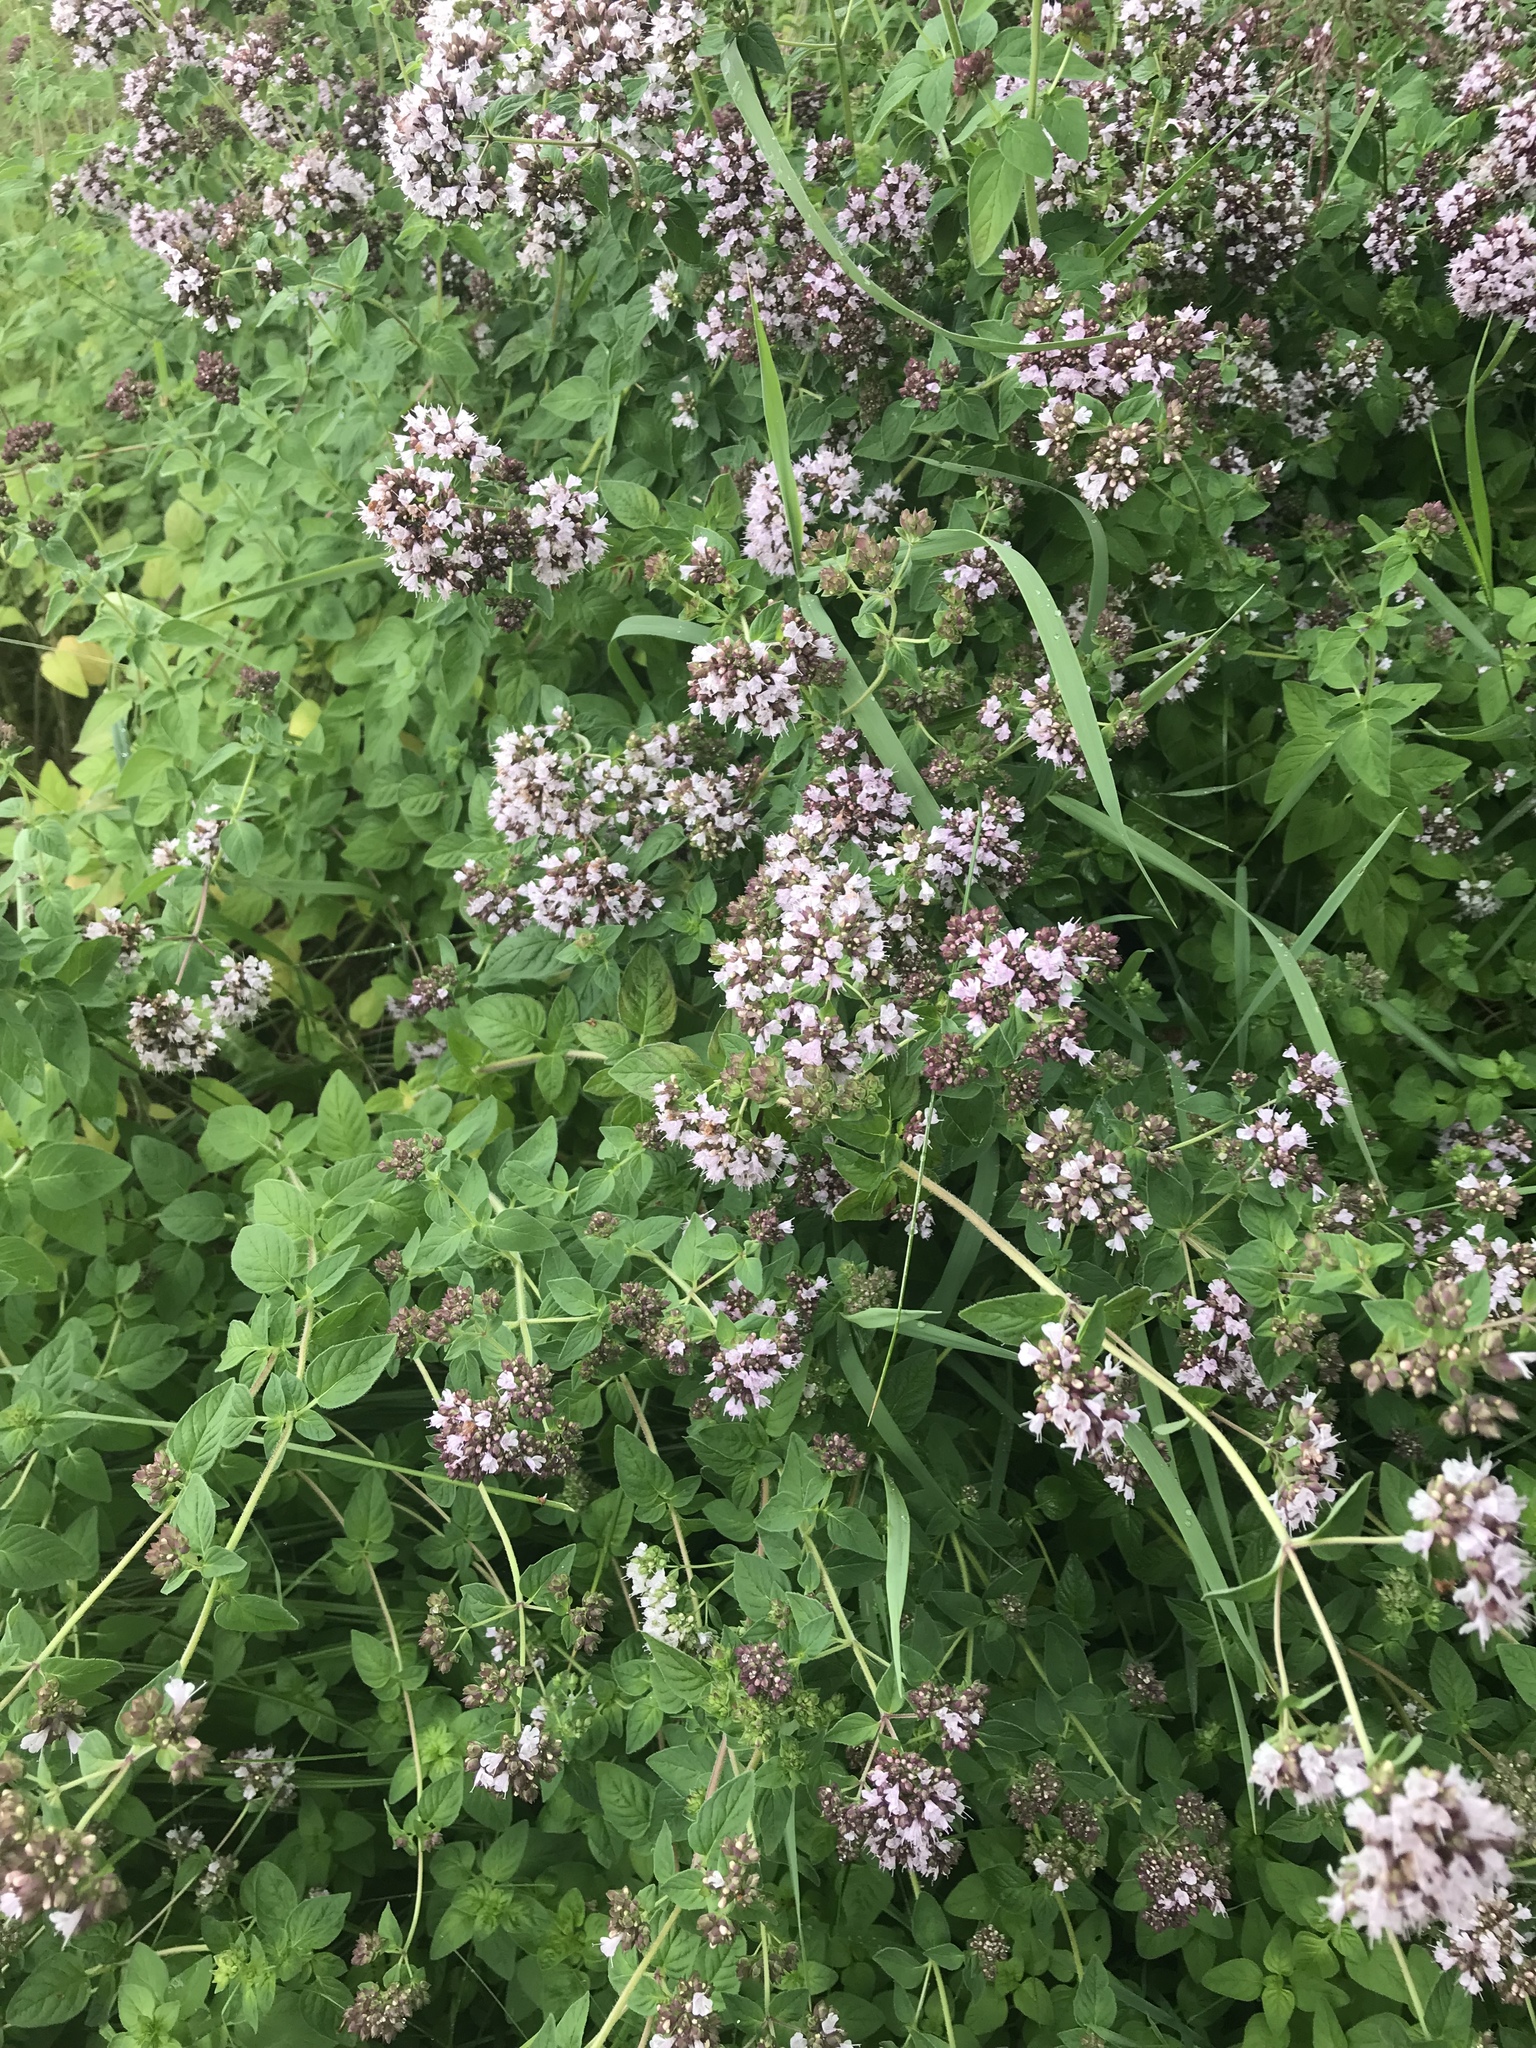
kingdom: Plantae
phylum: Tracheophyta
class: Magnoliopsida
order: Lamiales
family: Lamiaceae
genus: Origanum
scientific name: Origanum vulgare
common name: Wild marjoram
